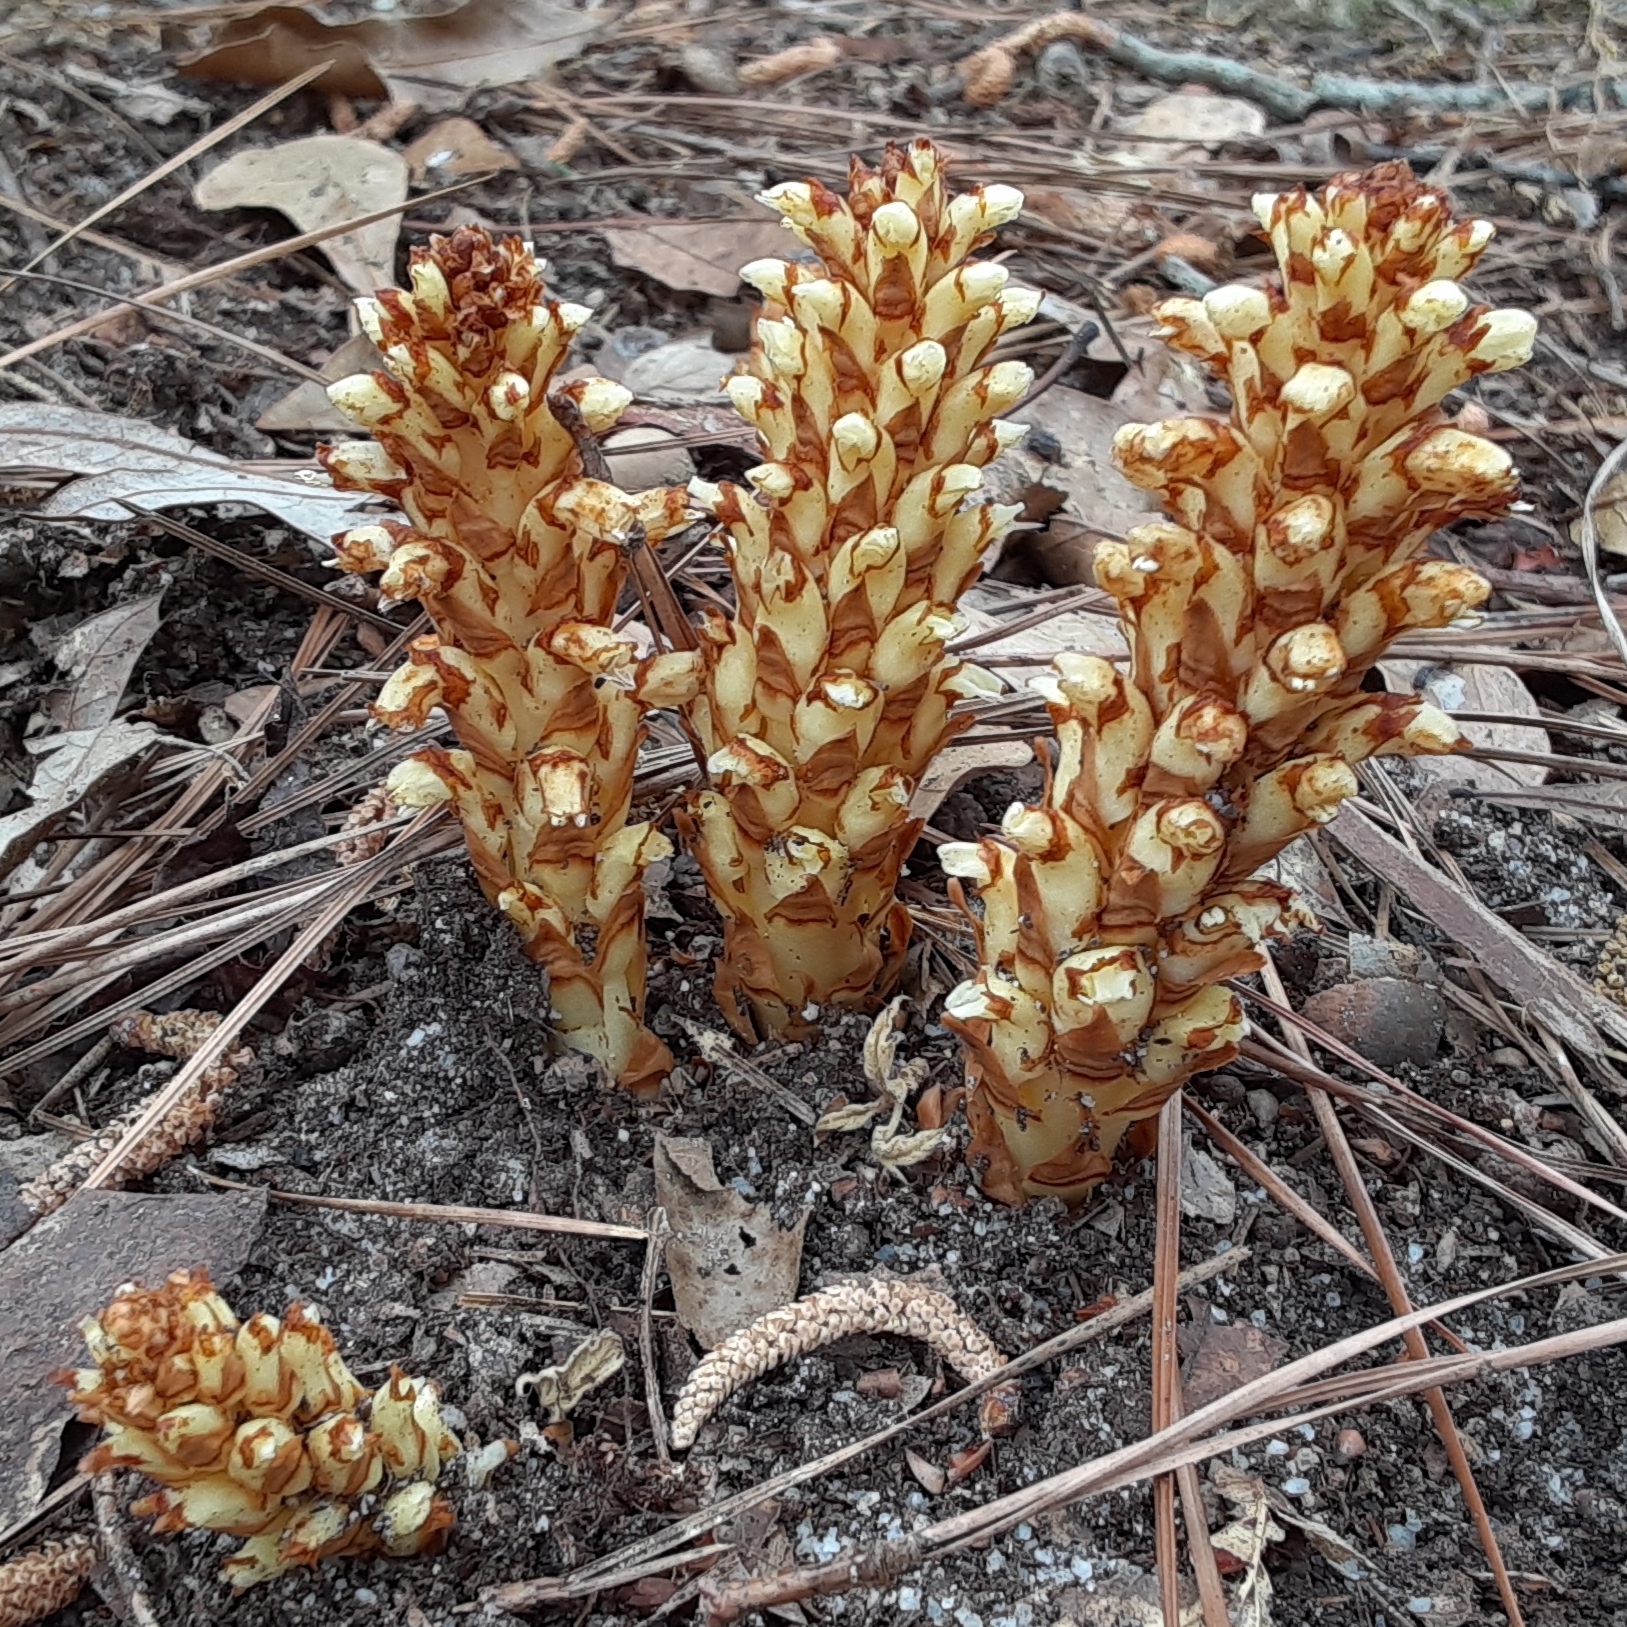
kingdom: Plantae
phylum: Tracheophyta
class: Magnoliopsida
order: Lamiales
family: Orobanchaceae
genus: Conopholis
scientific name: Conopholis americana
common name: American cancer-root
